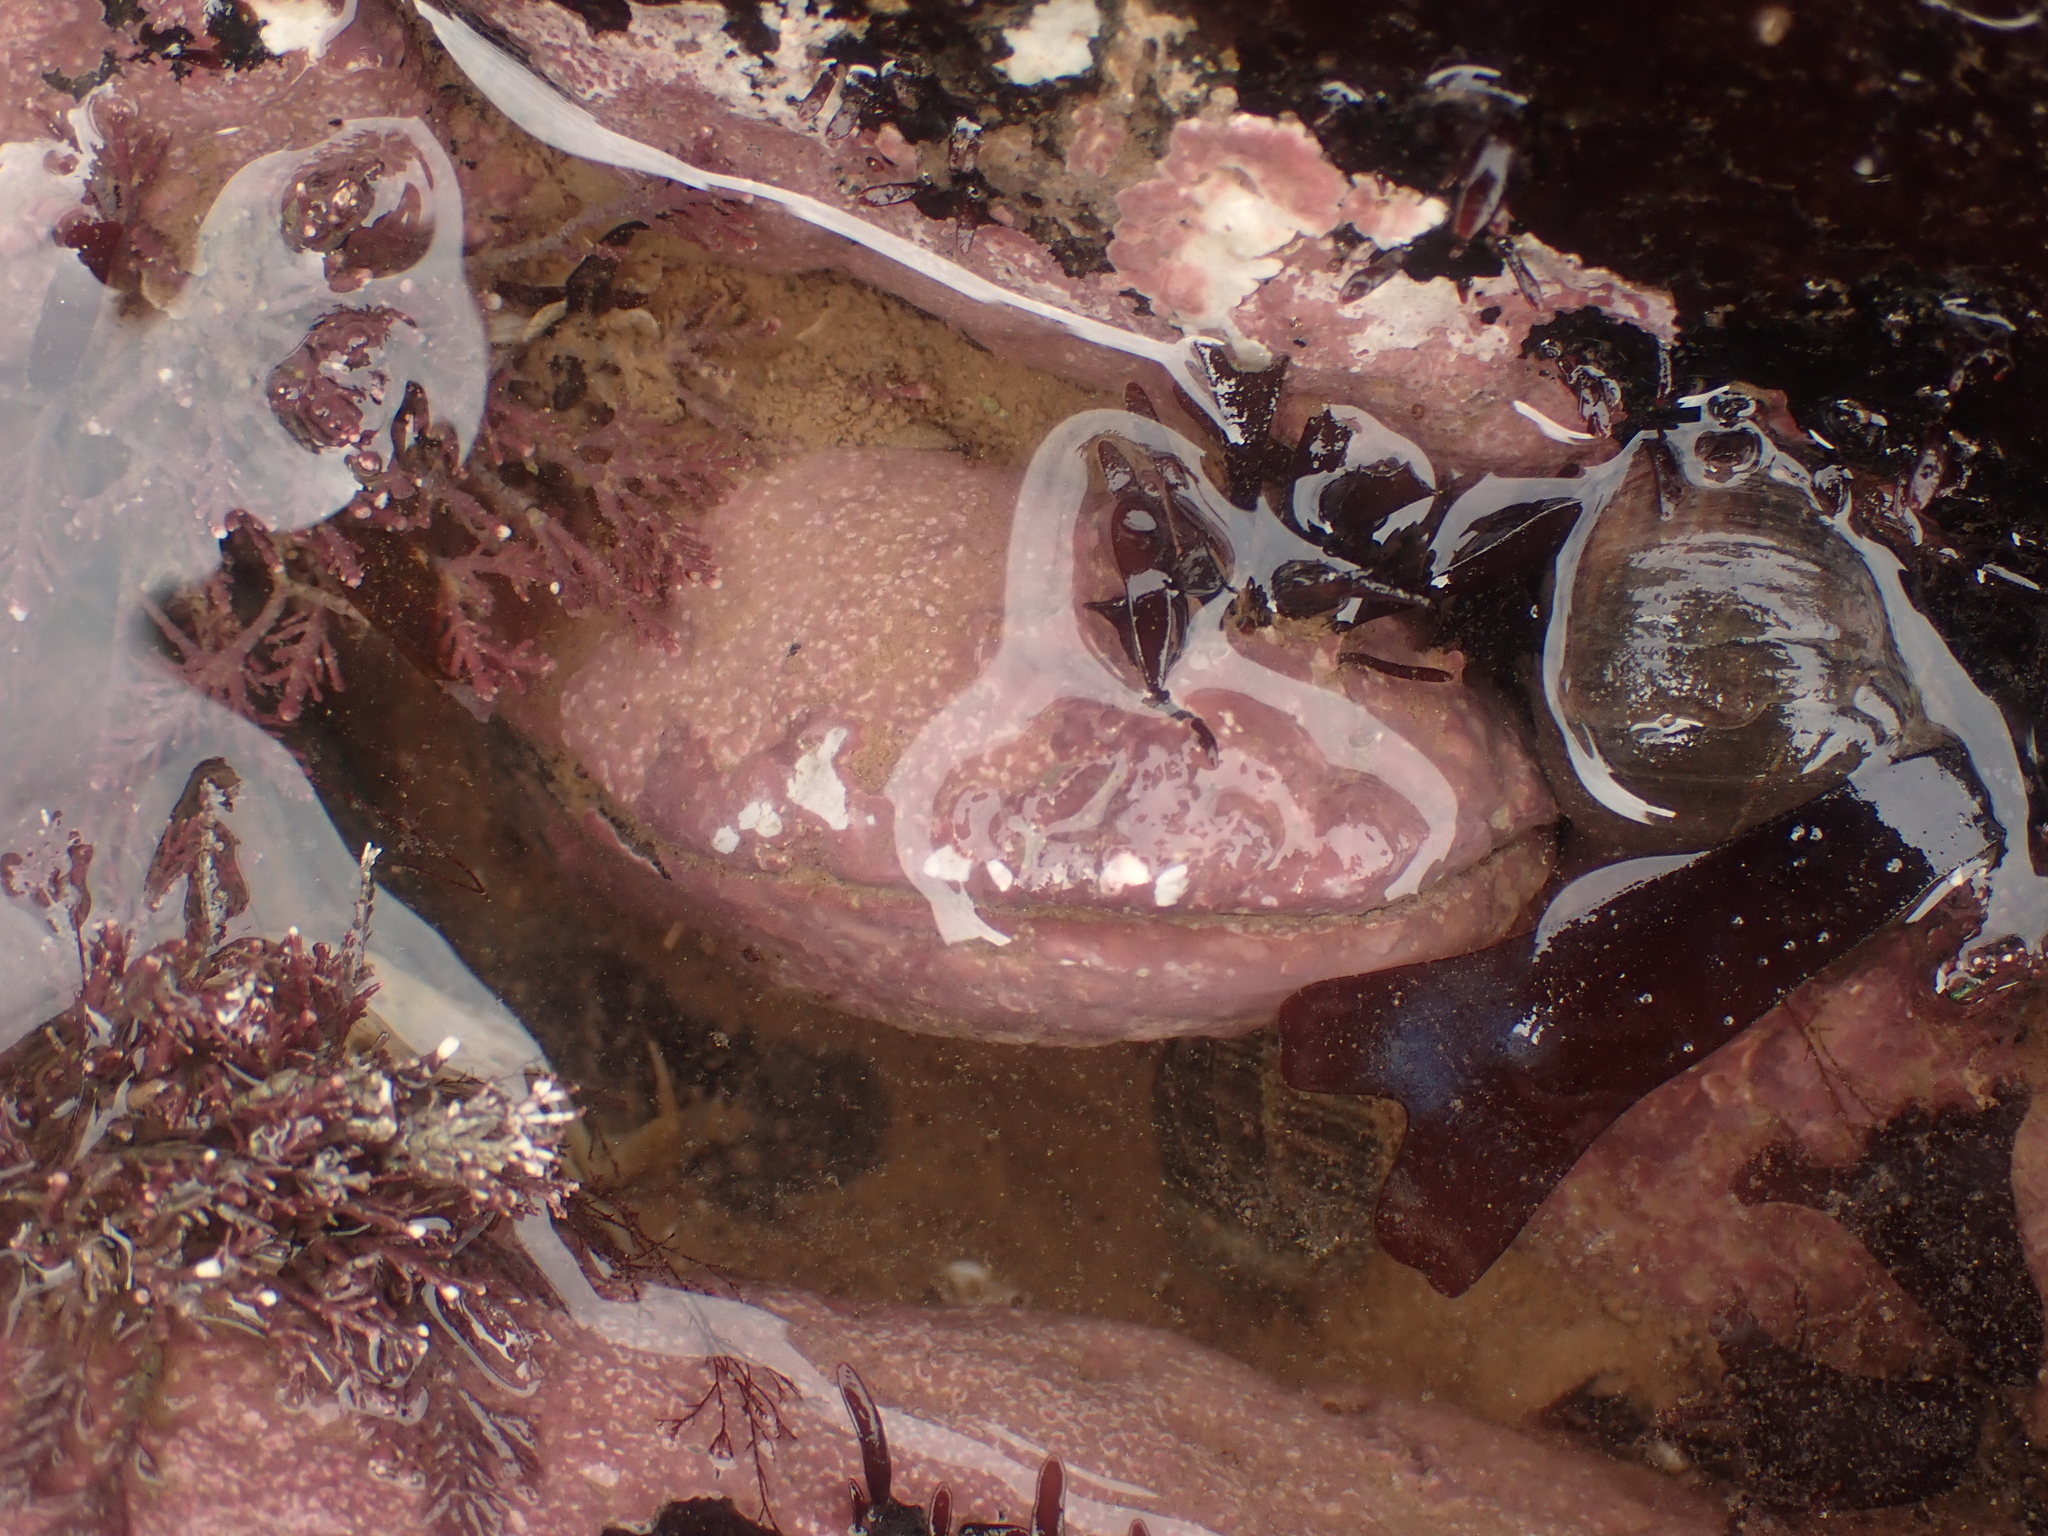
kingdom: Animalia
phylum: Mollusca
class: Bivalvia
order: Mytilida
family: Mytilidae
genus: Modiolus
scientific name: Modiolus modiolus
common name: Horse-mussel
